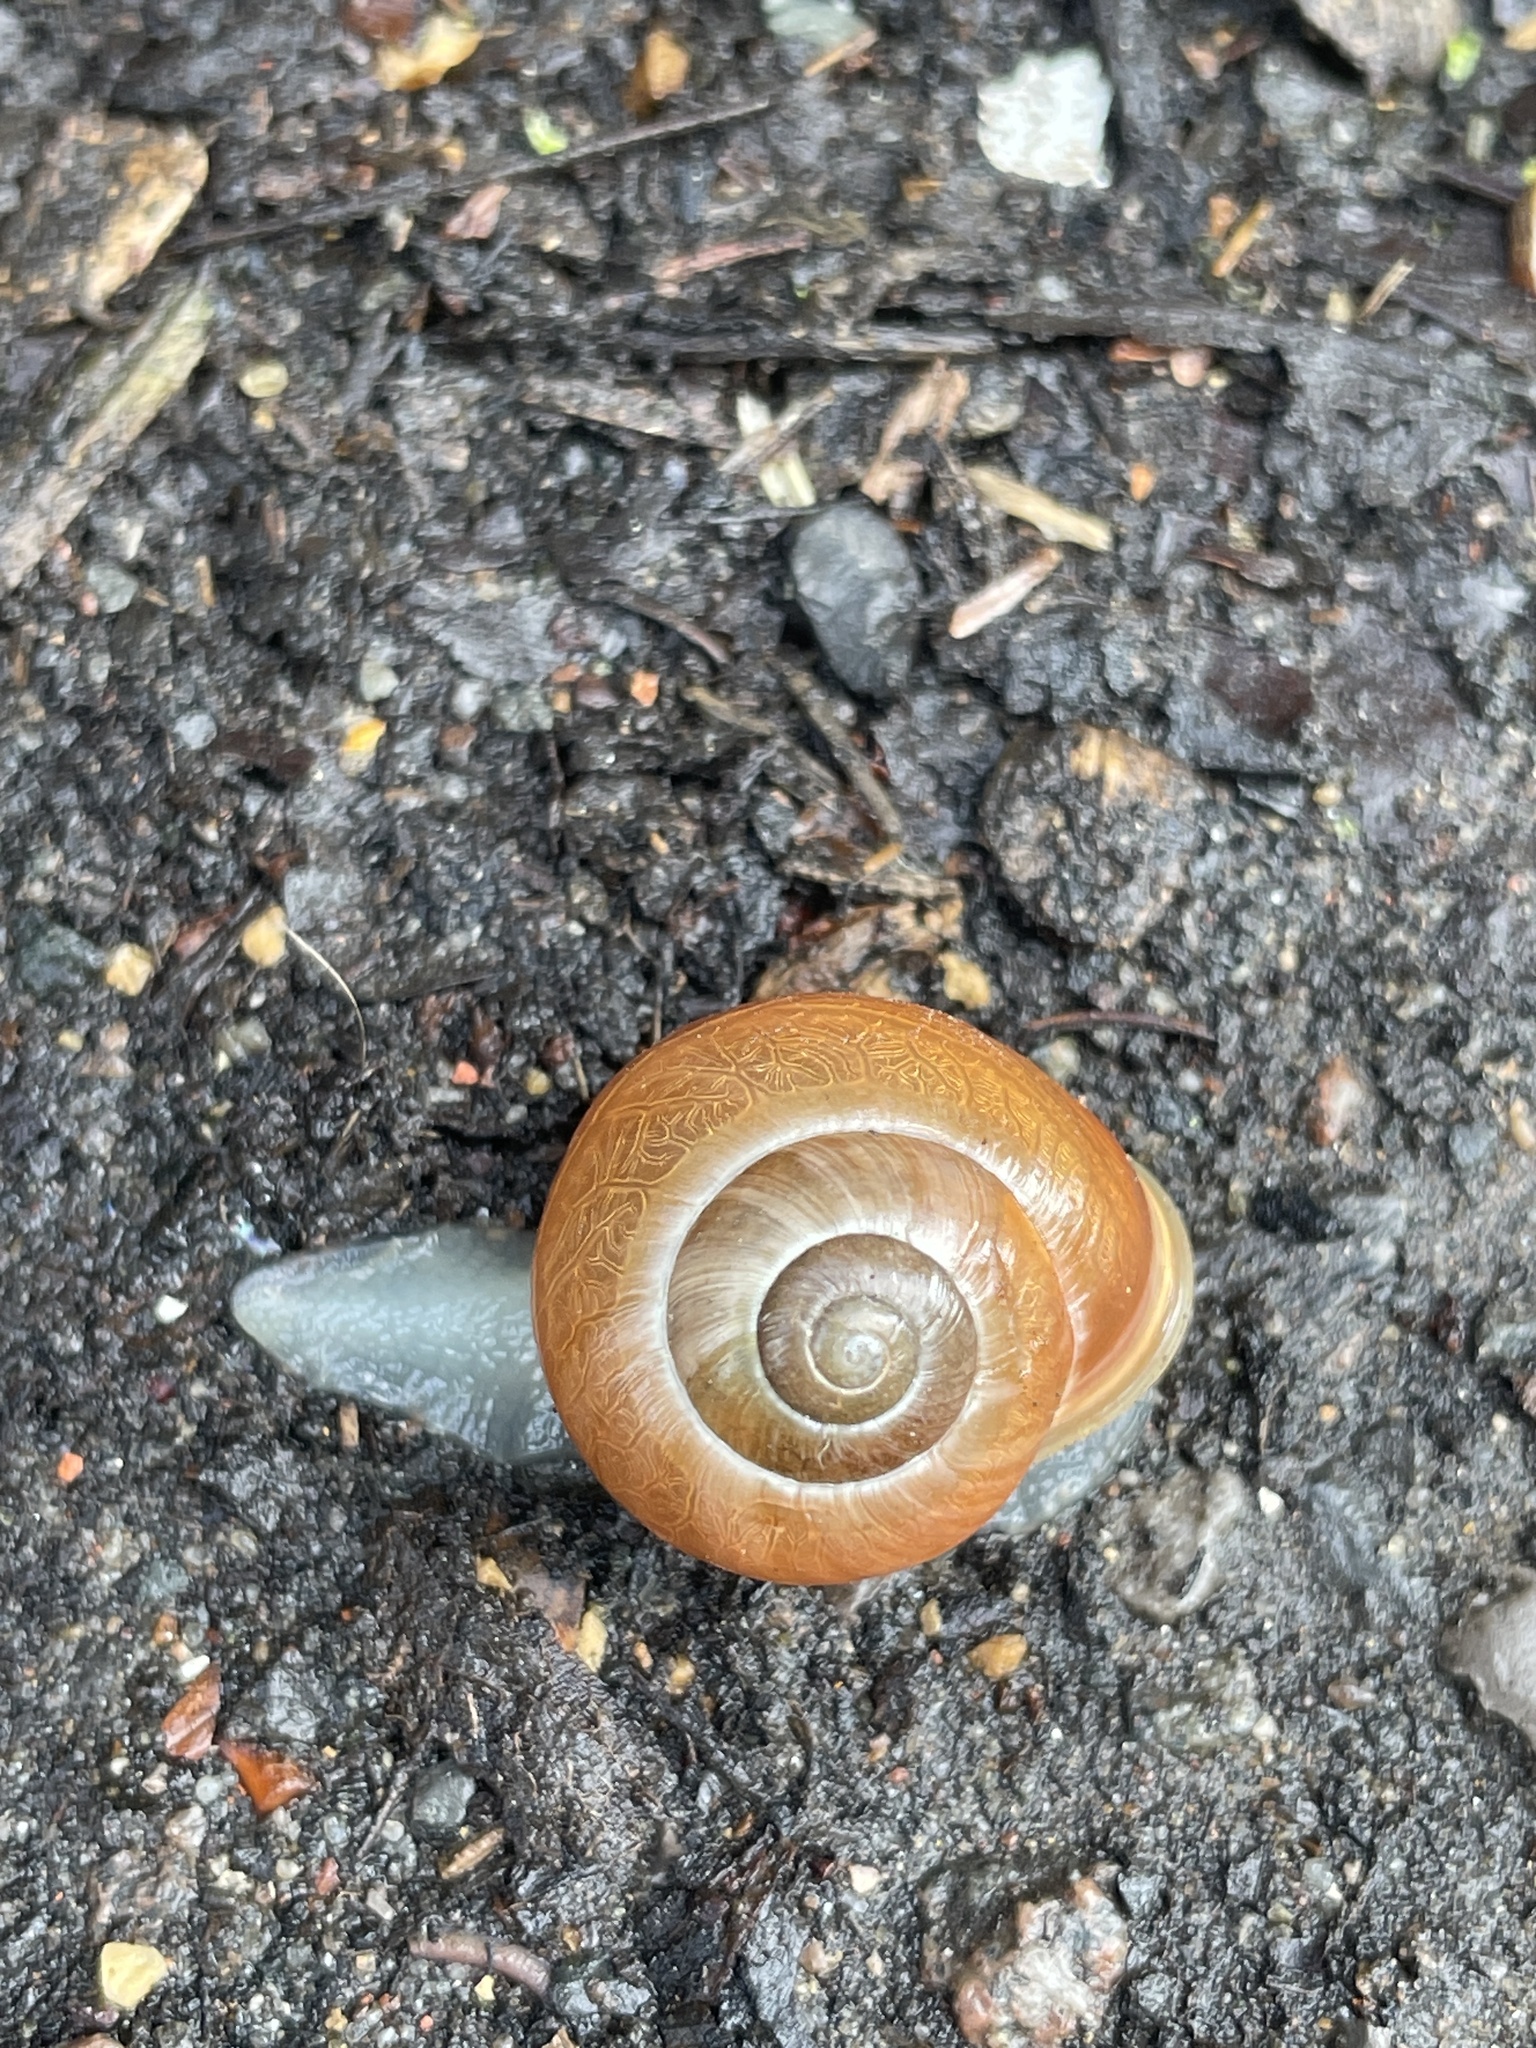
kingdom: Animalia
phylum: Mollusca
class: Gastropoda
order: Stylommatophora
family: Helicidae
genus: Cepaea
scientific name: Cepaea hortensis
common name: White-lip gardensnail
